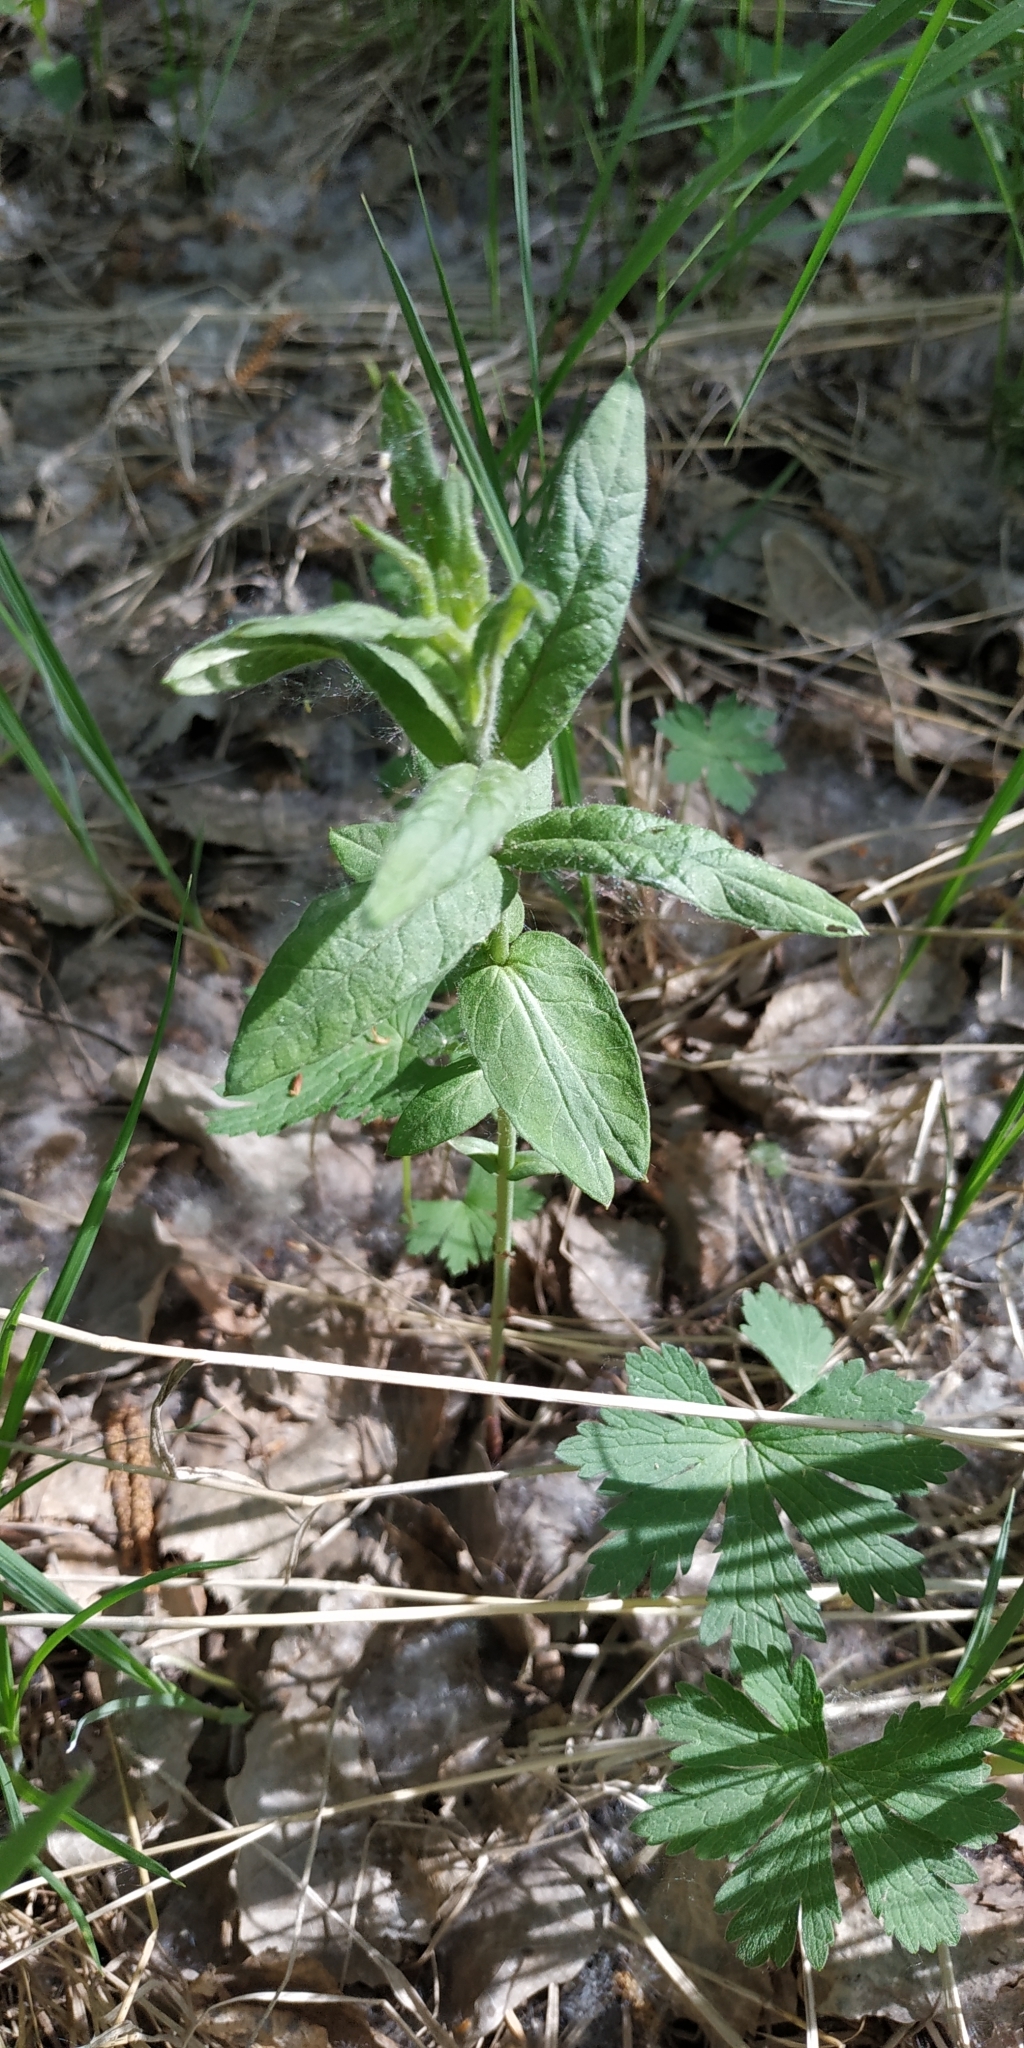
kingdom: Plantae
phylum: Tracheophyta
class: Magnoliopsida
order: Ericales
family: Primulaceae
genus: Lysimachia
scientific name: Lysimachia vulgaris
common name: Yellow loosestrife
